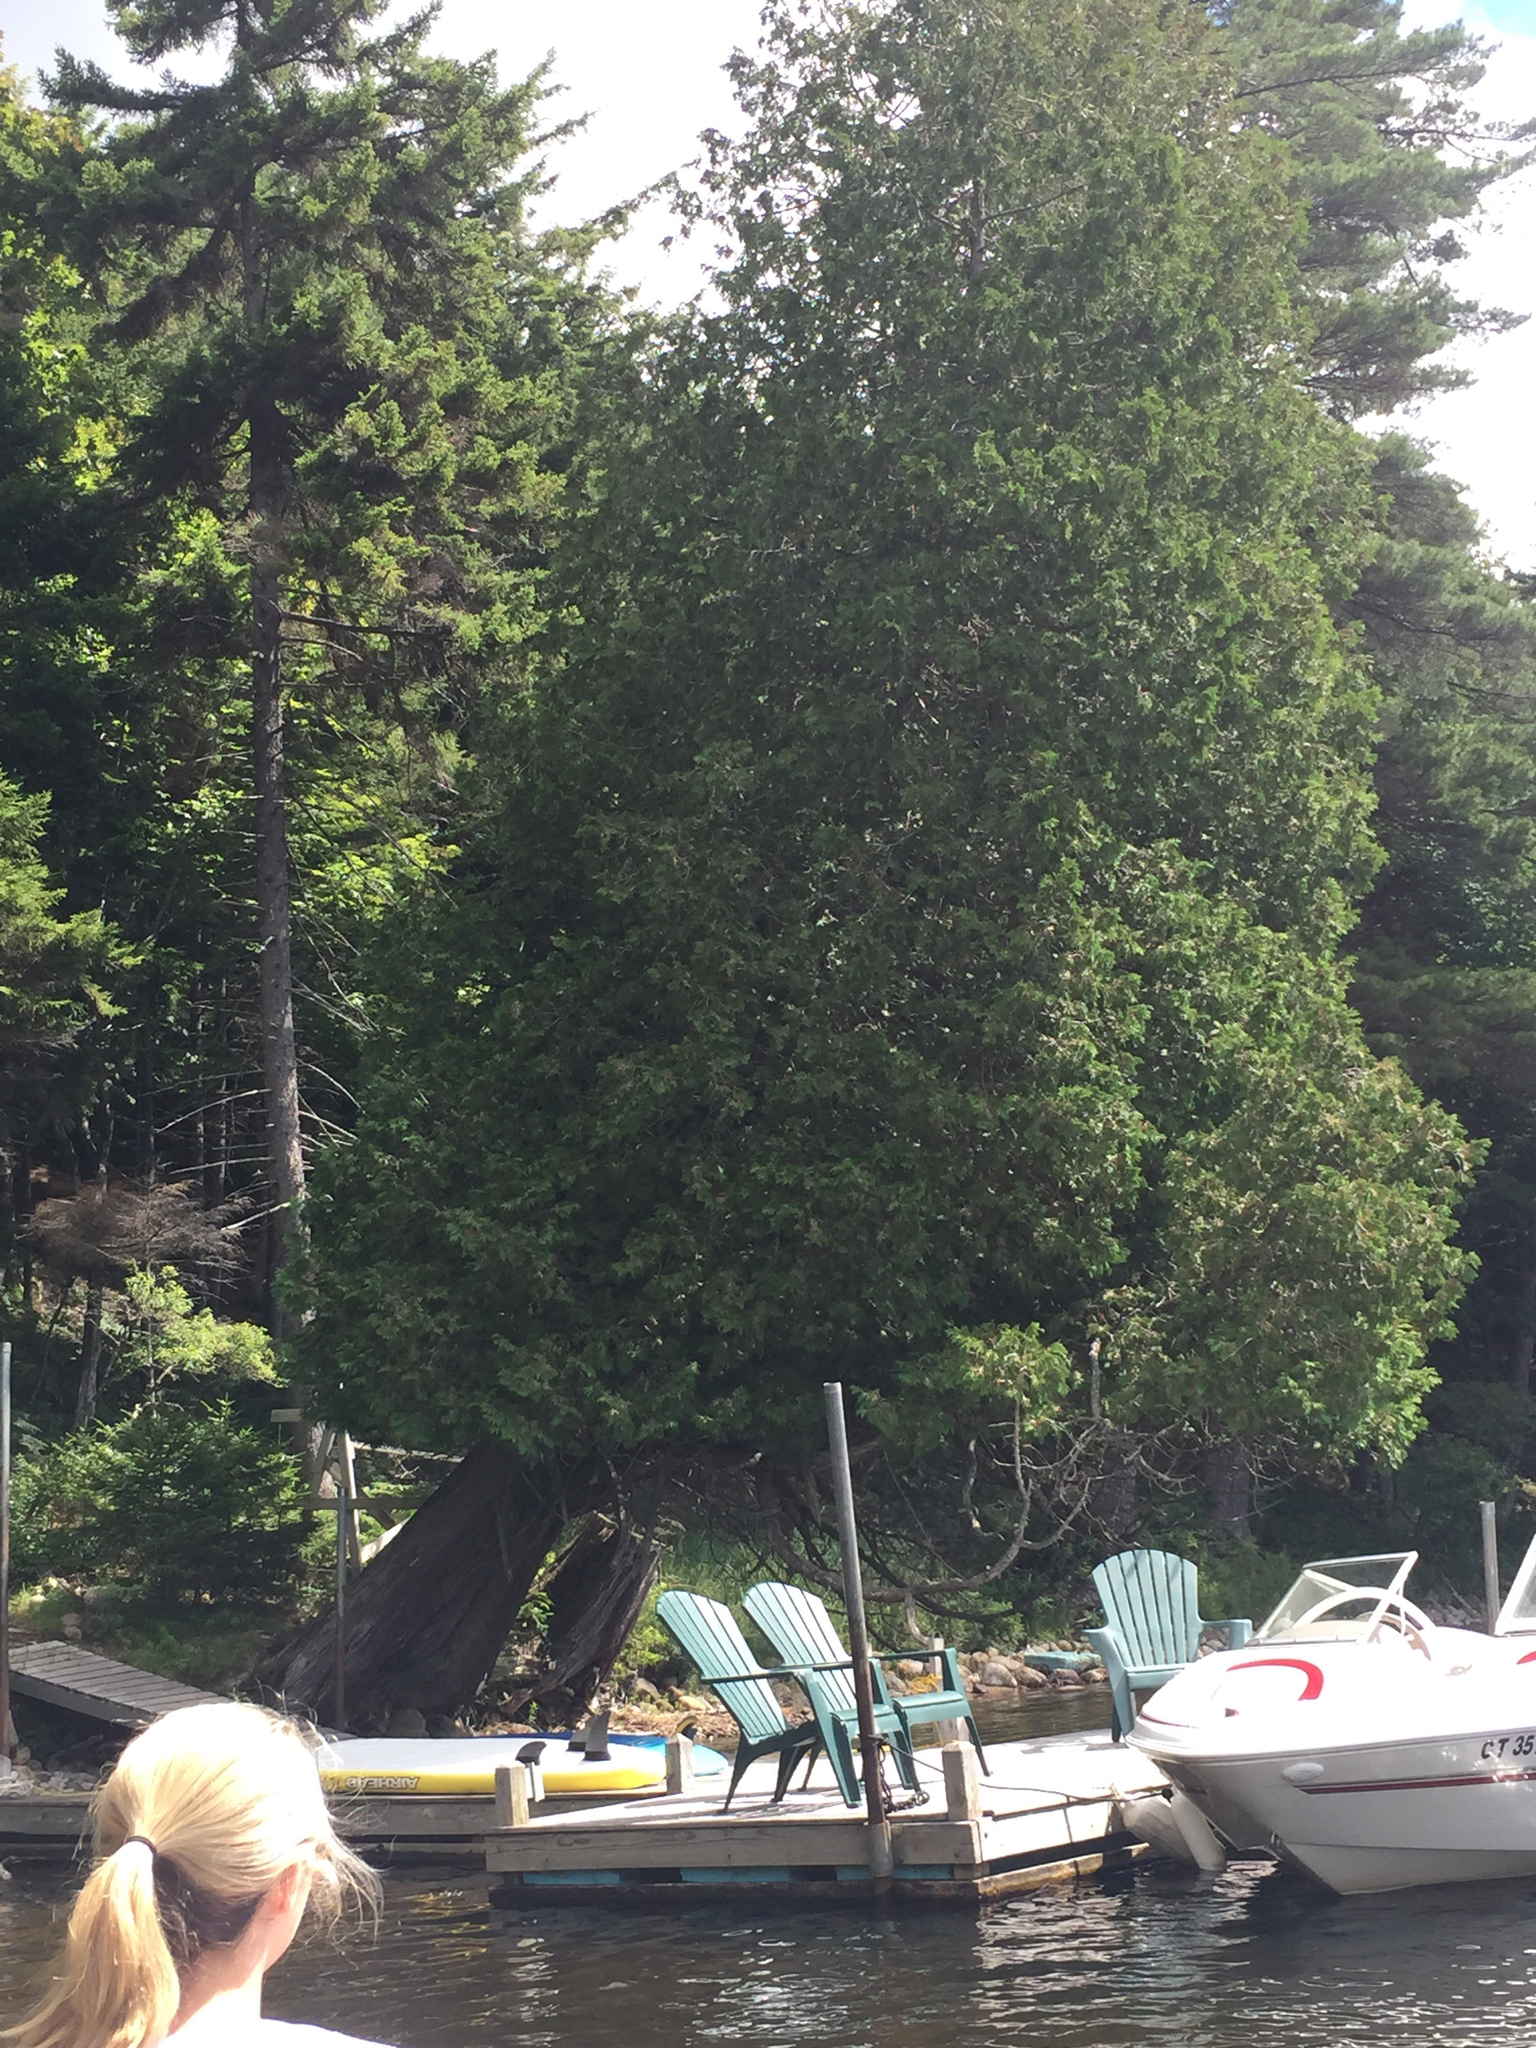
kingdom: Plantae
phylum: Tracheophyta
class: Pinopsida
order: Pinales
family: Cupressaceae
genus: Thuja
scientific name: Thuja occidentalis
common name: Northern white-cedar
